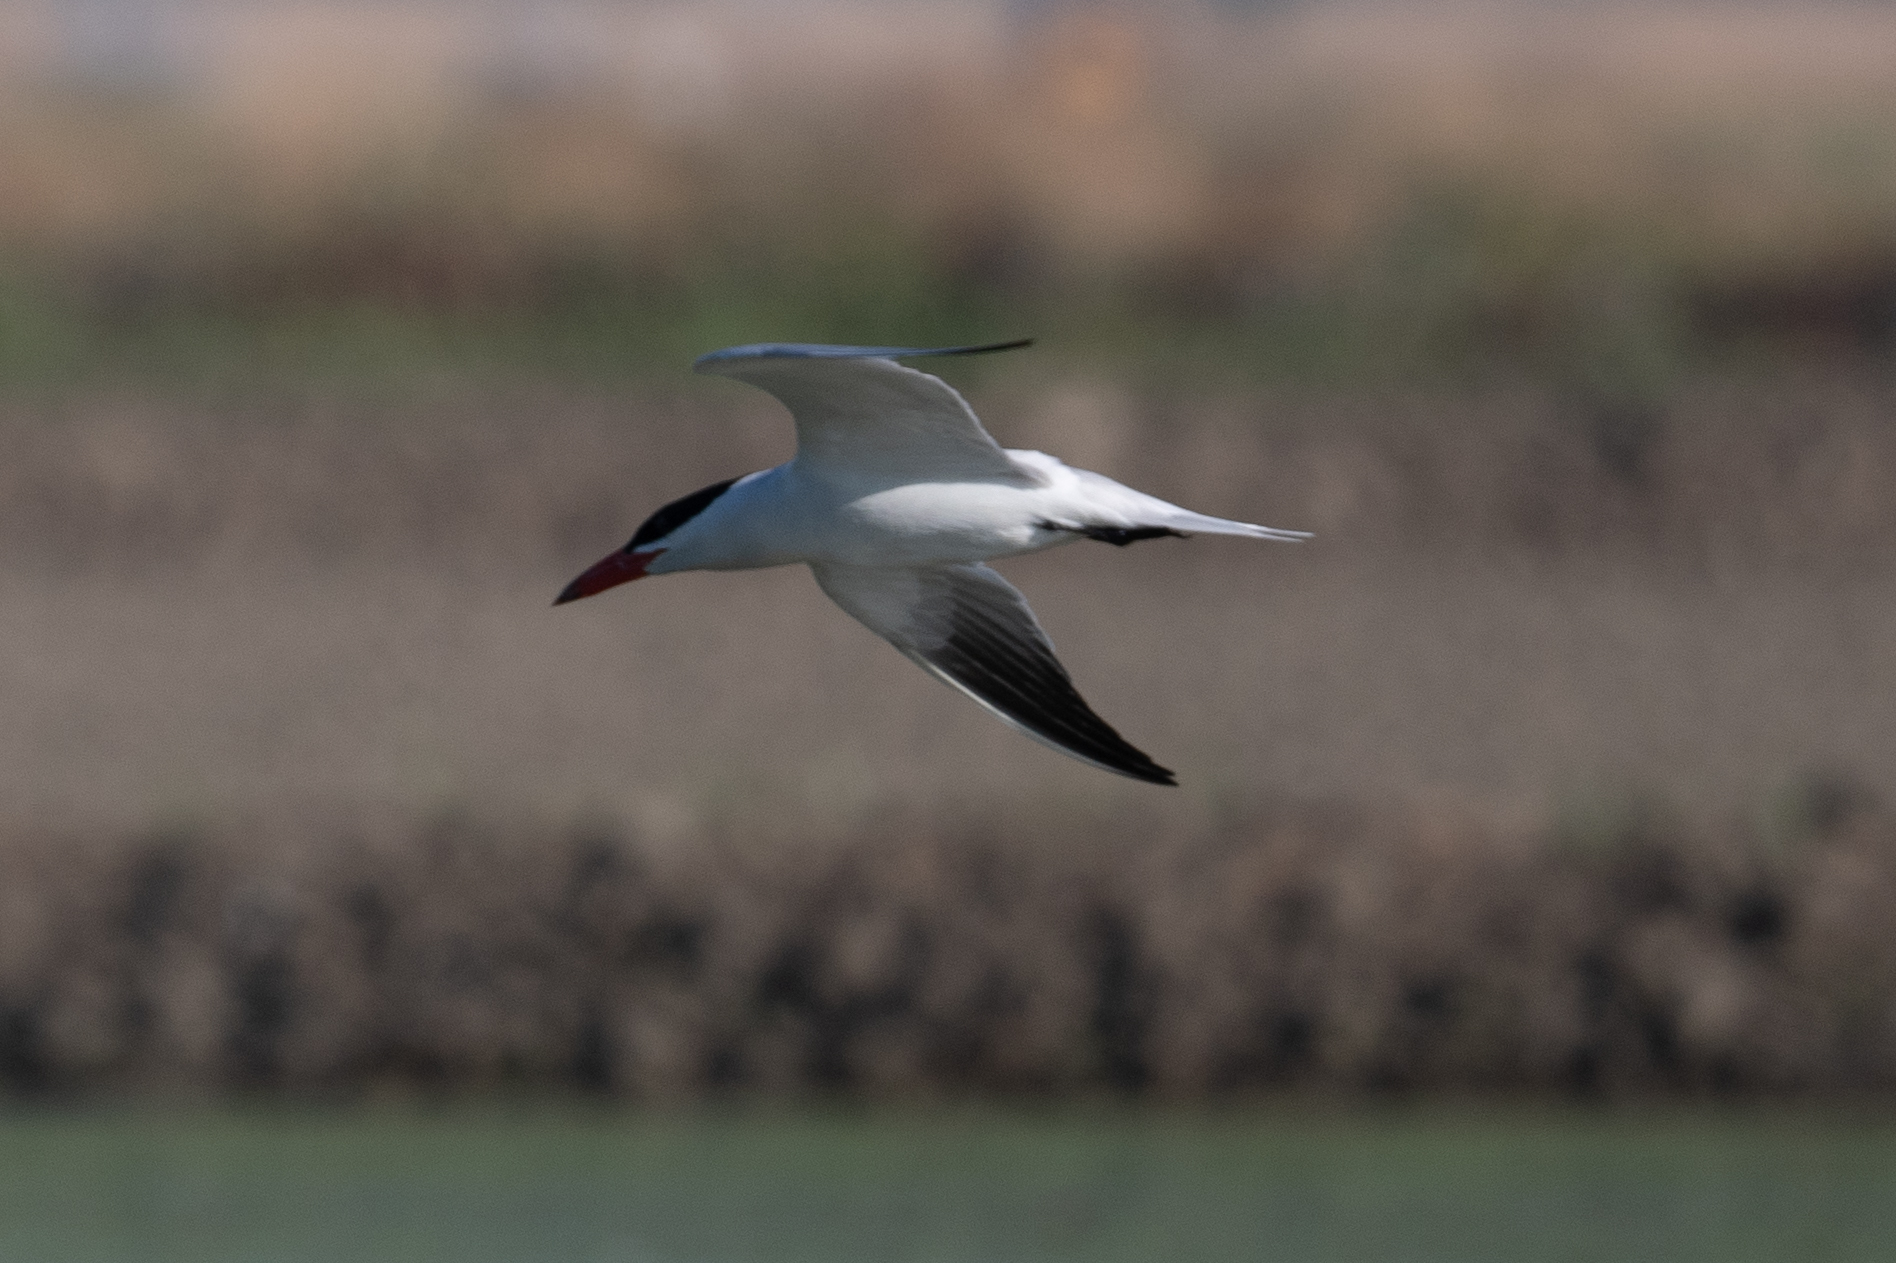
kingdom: Animalia
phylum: Chordata
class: Aves
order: Charadriiformes
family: Laridae
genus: Hydroprogne
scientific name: Hydroprogne caspia
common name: Caspian tern
